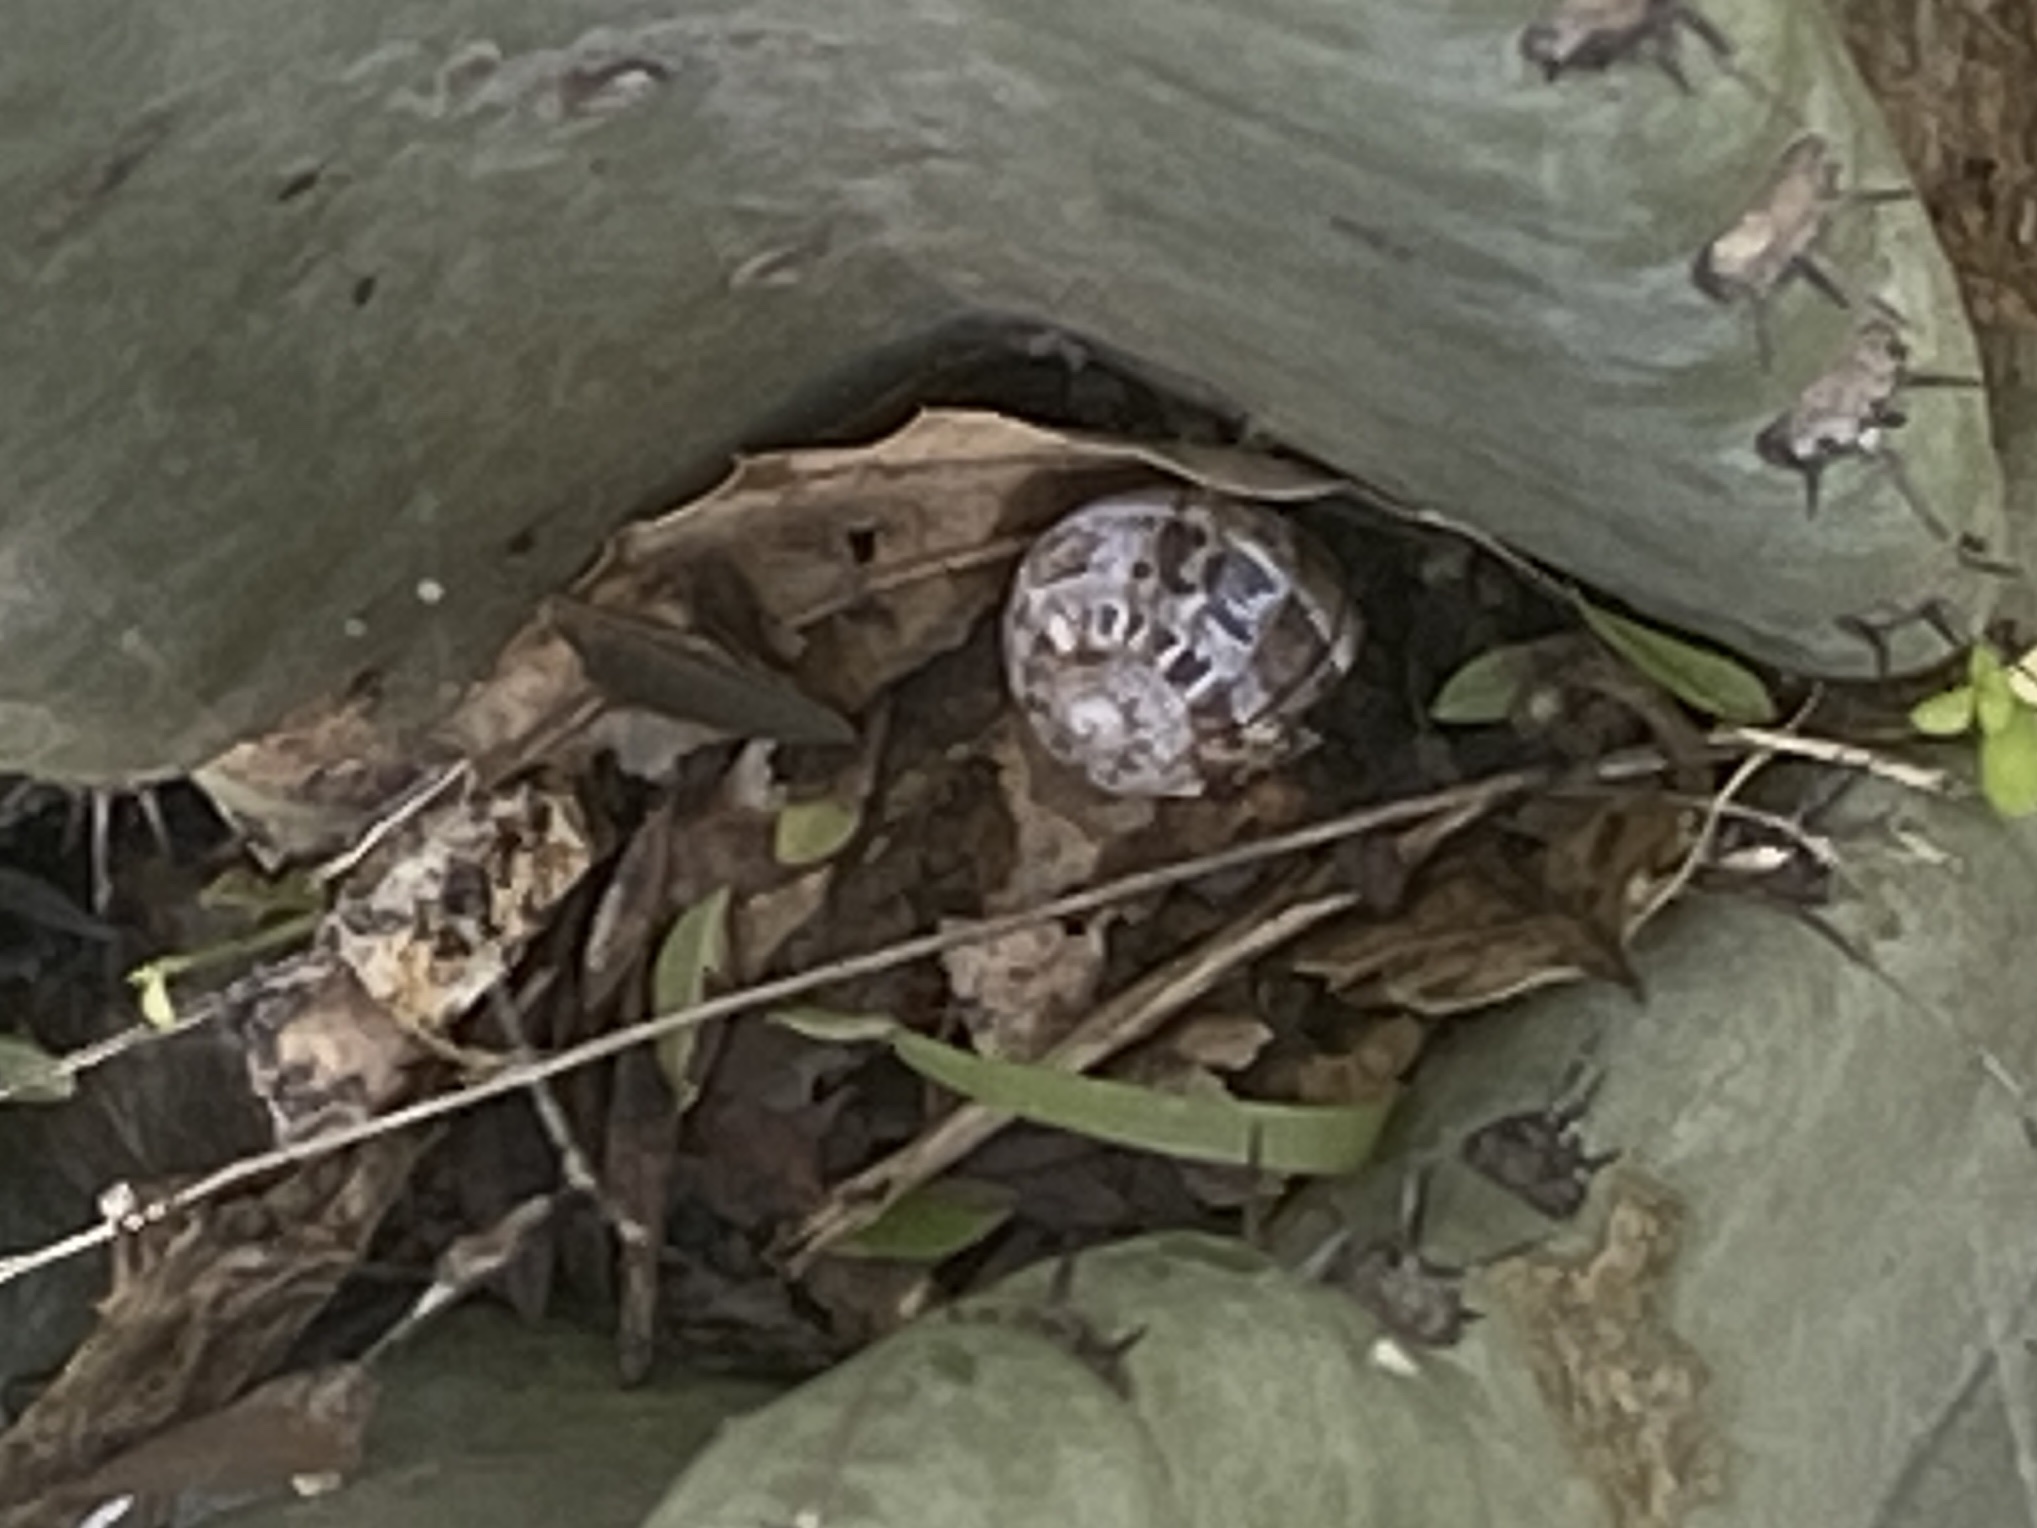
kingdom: Animalia
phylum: Mollusca
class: Gastropoda
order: Stylommatophora
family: Helicidae
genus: Cornu
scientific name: Cornu aspersum
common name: Brown garden snail
